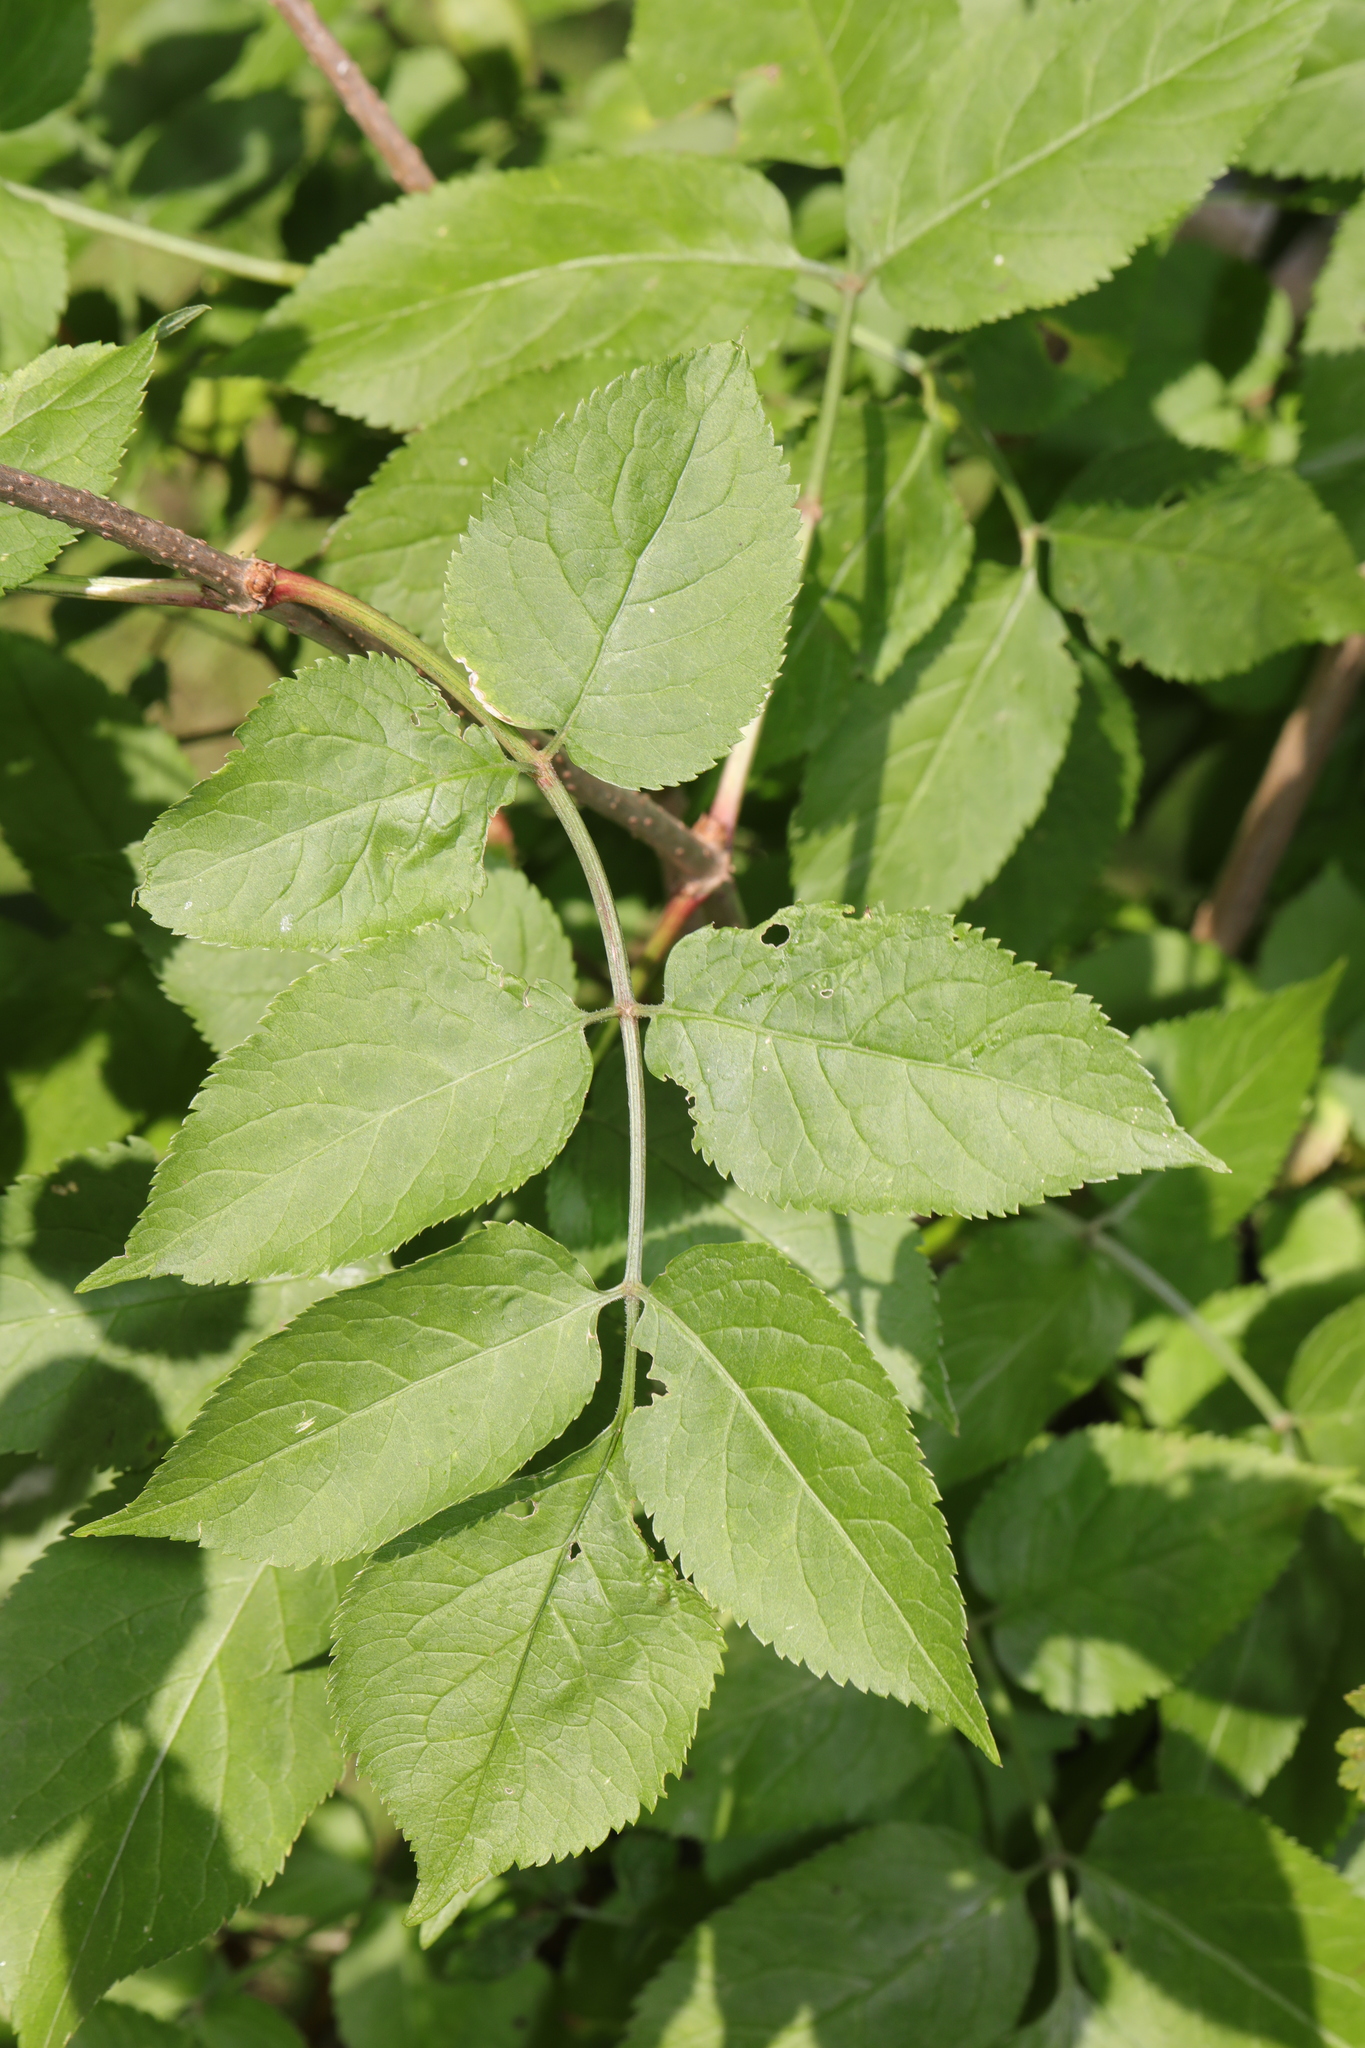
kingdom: Plantae
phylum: Tracheophyta
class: Magnoliopsida
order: Dipsacales
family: Viburnaceae
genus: Sambucus
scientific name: Sambucus nigra
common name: Elder
